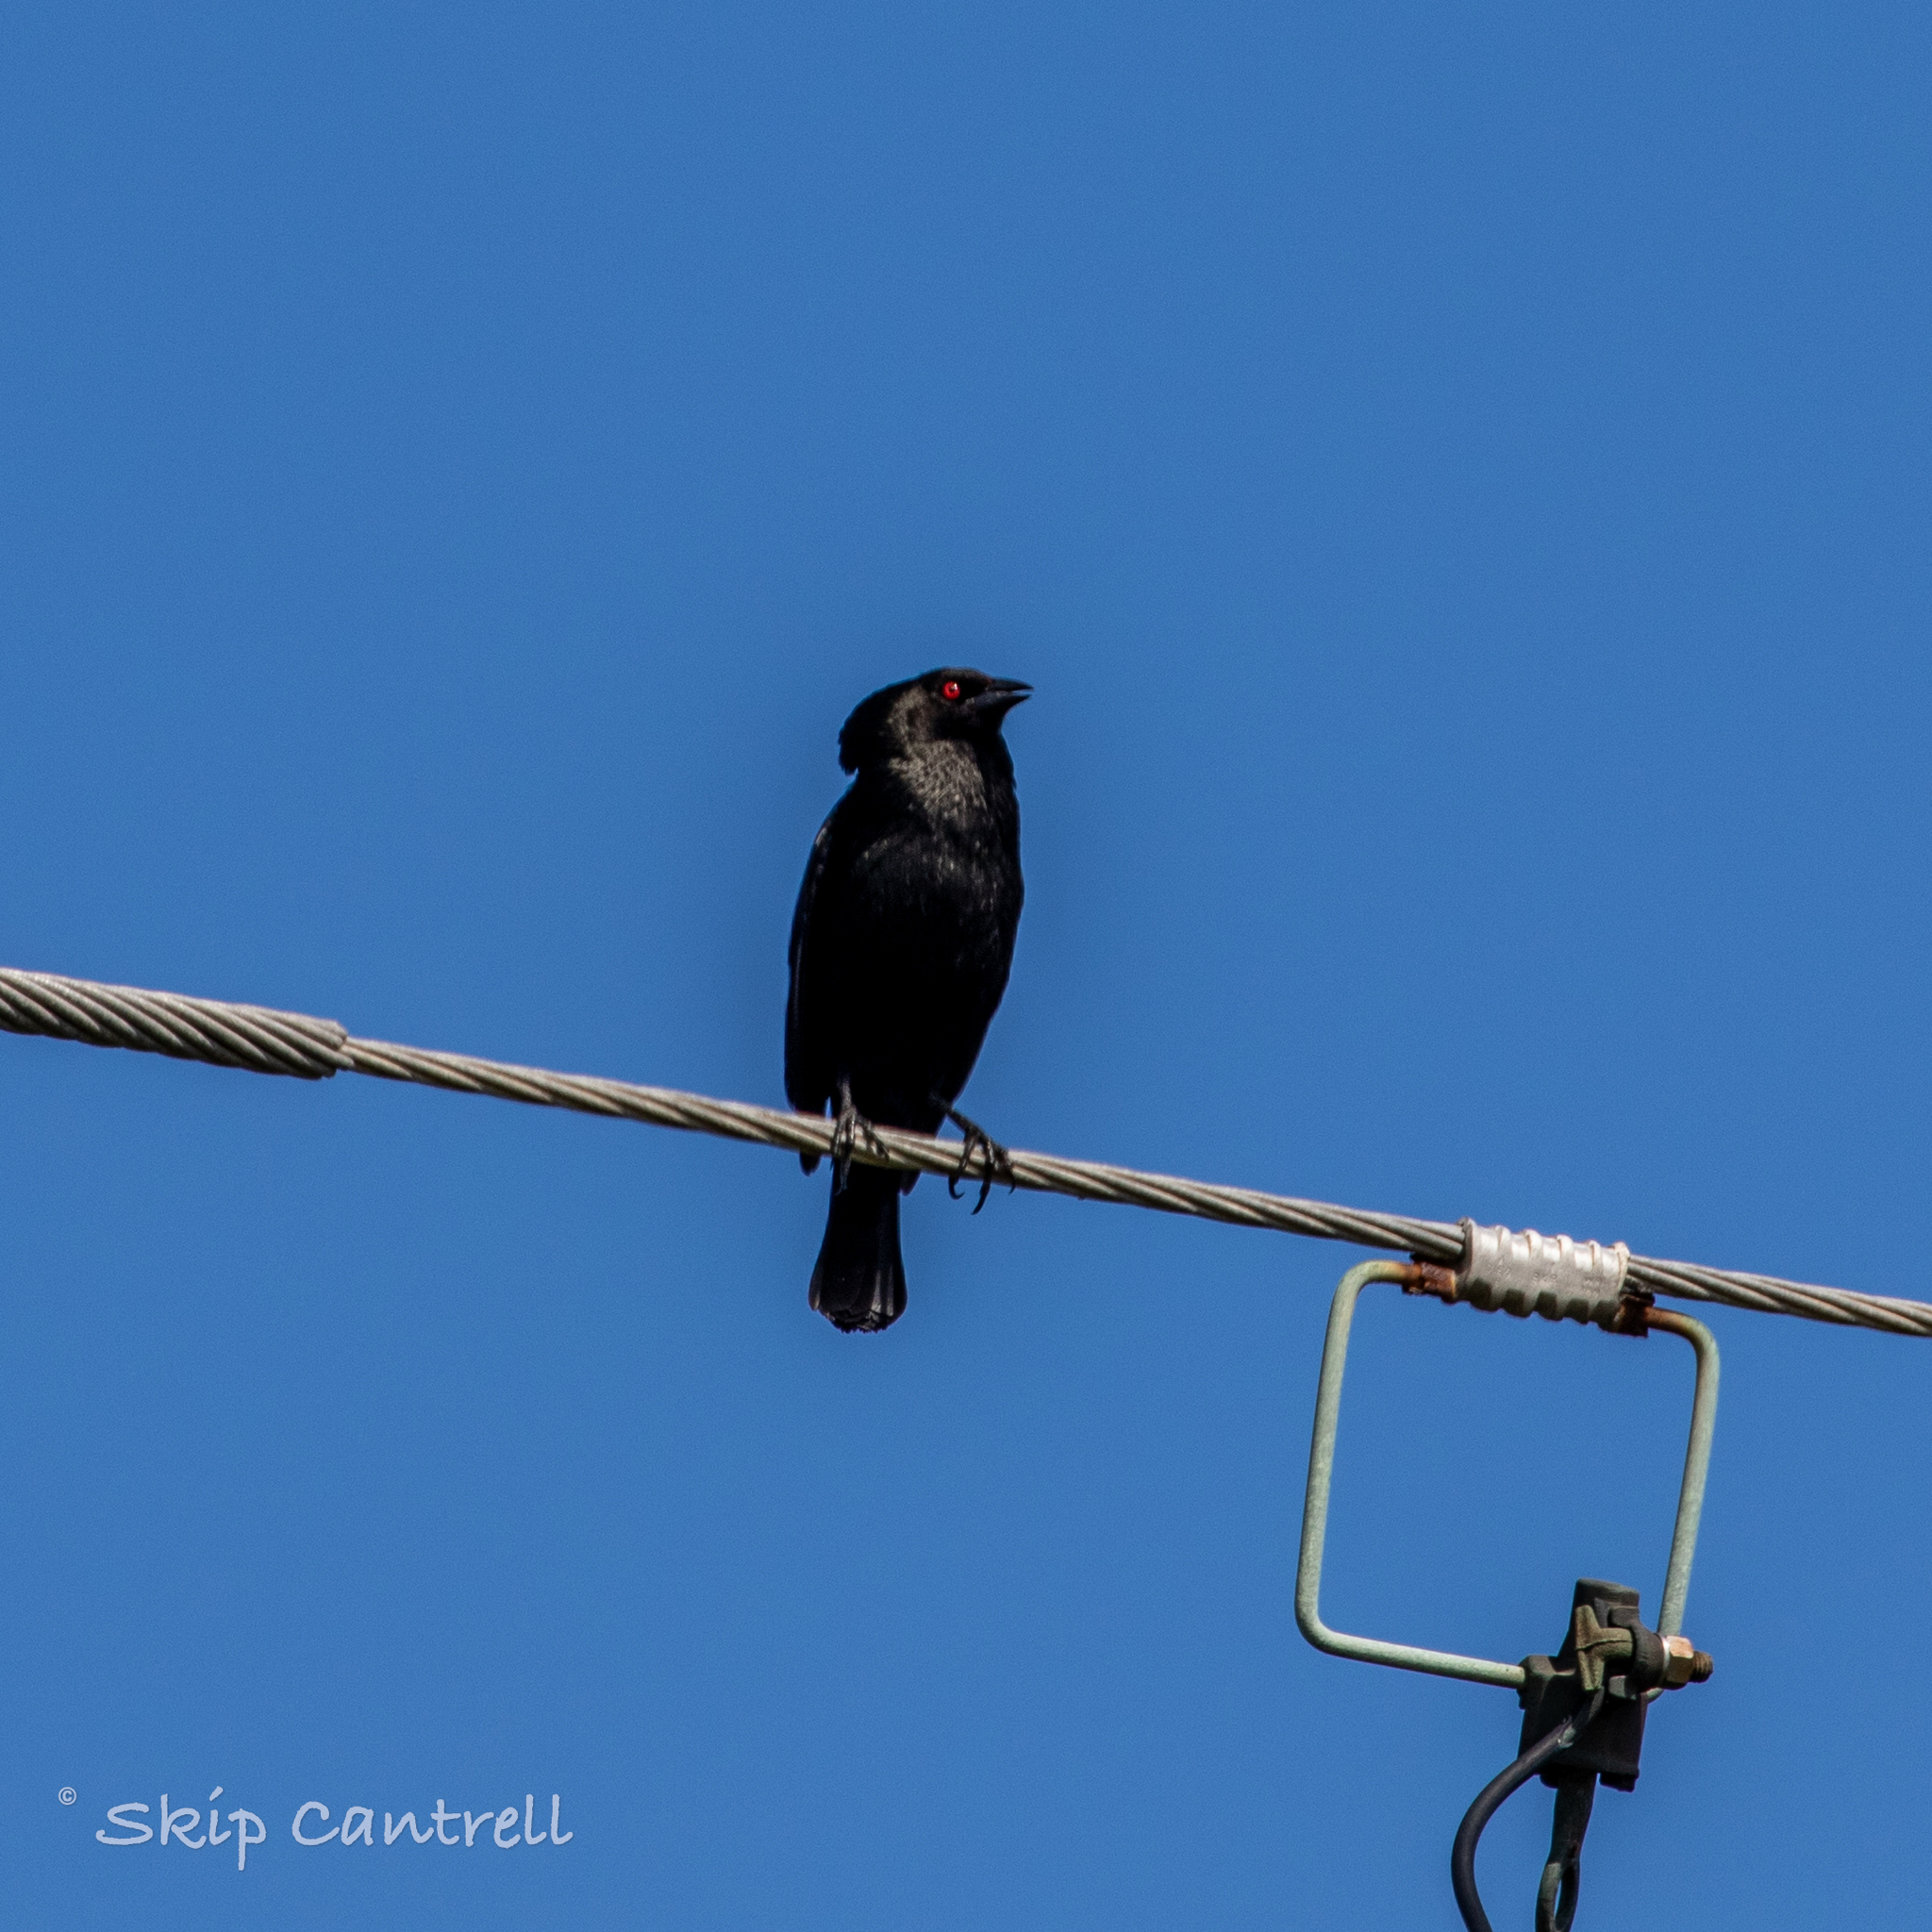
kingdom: Animalia
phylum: Chordata
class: Aves
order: Passeriformes
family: Icteridae
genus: Molothrus
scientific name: Molothrus aeneus
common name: Bronzed cowbird
